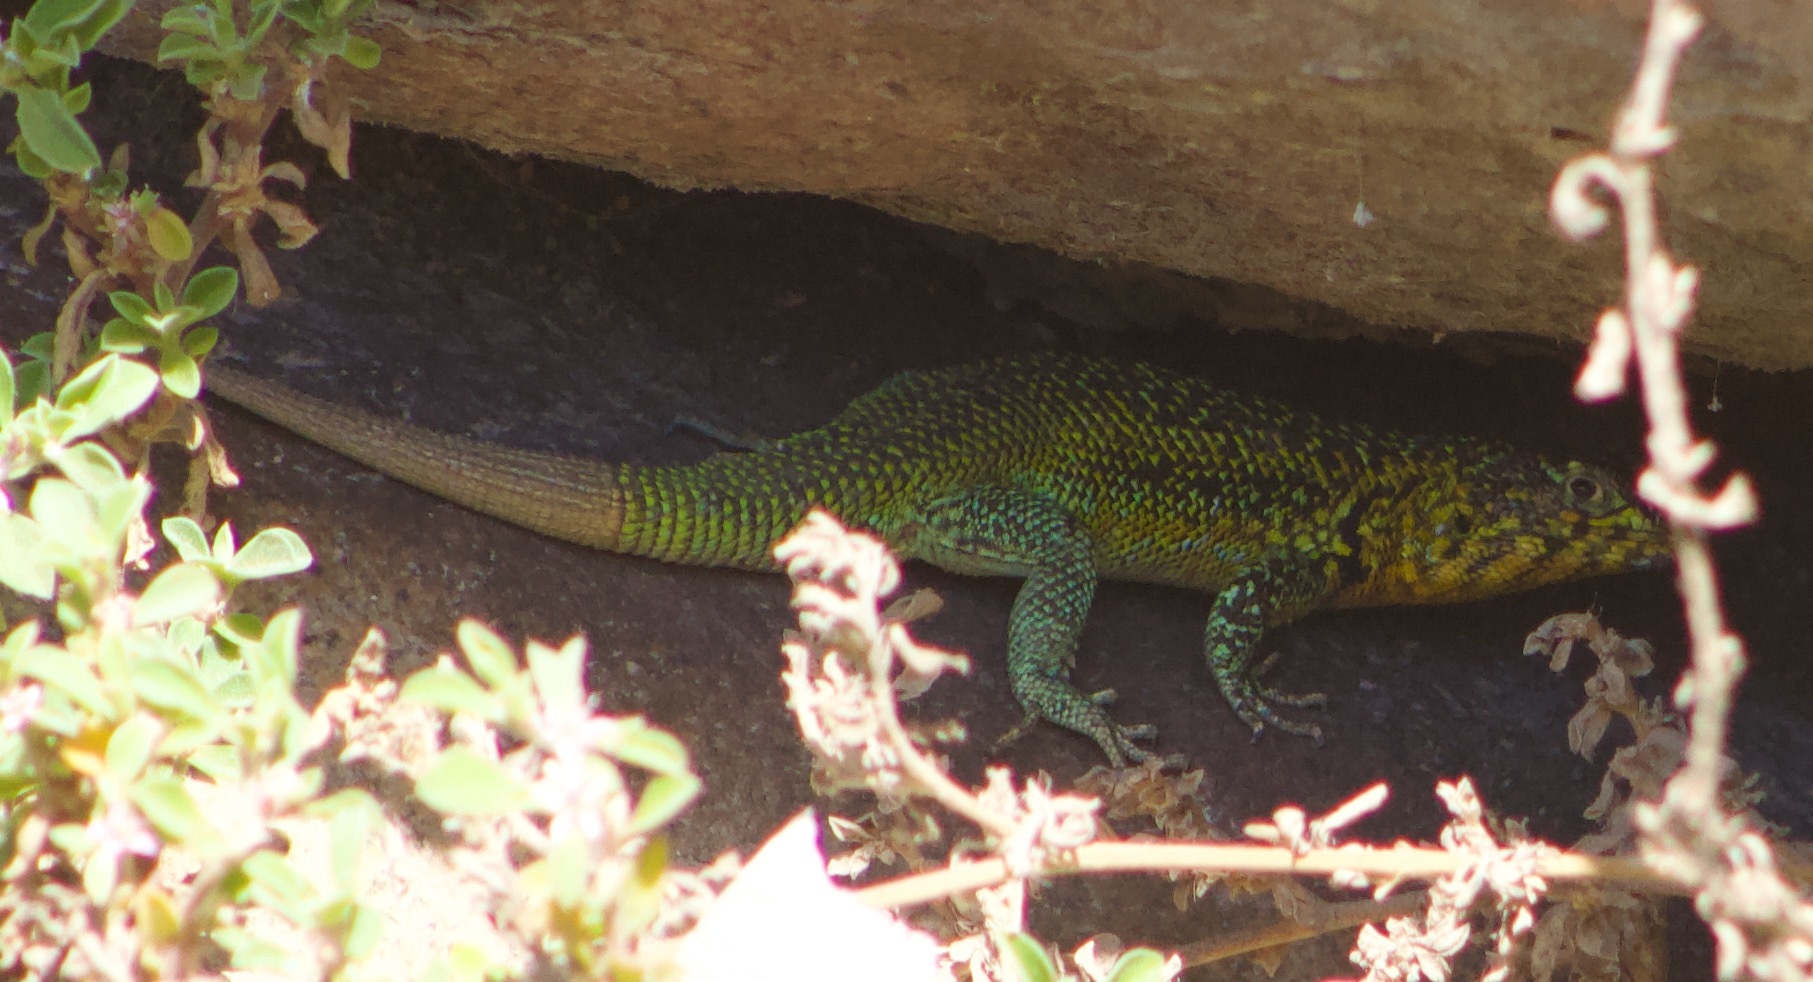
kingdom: Animalia
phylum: Chordata
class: Squamata
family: Liolaemidae
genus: Liolaemus
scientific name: Liolaemus zapallarensis
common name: Zapallaren tree iguana
